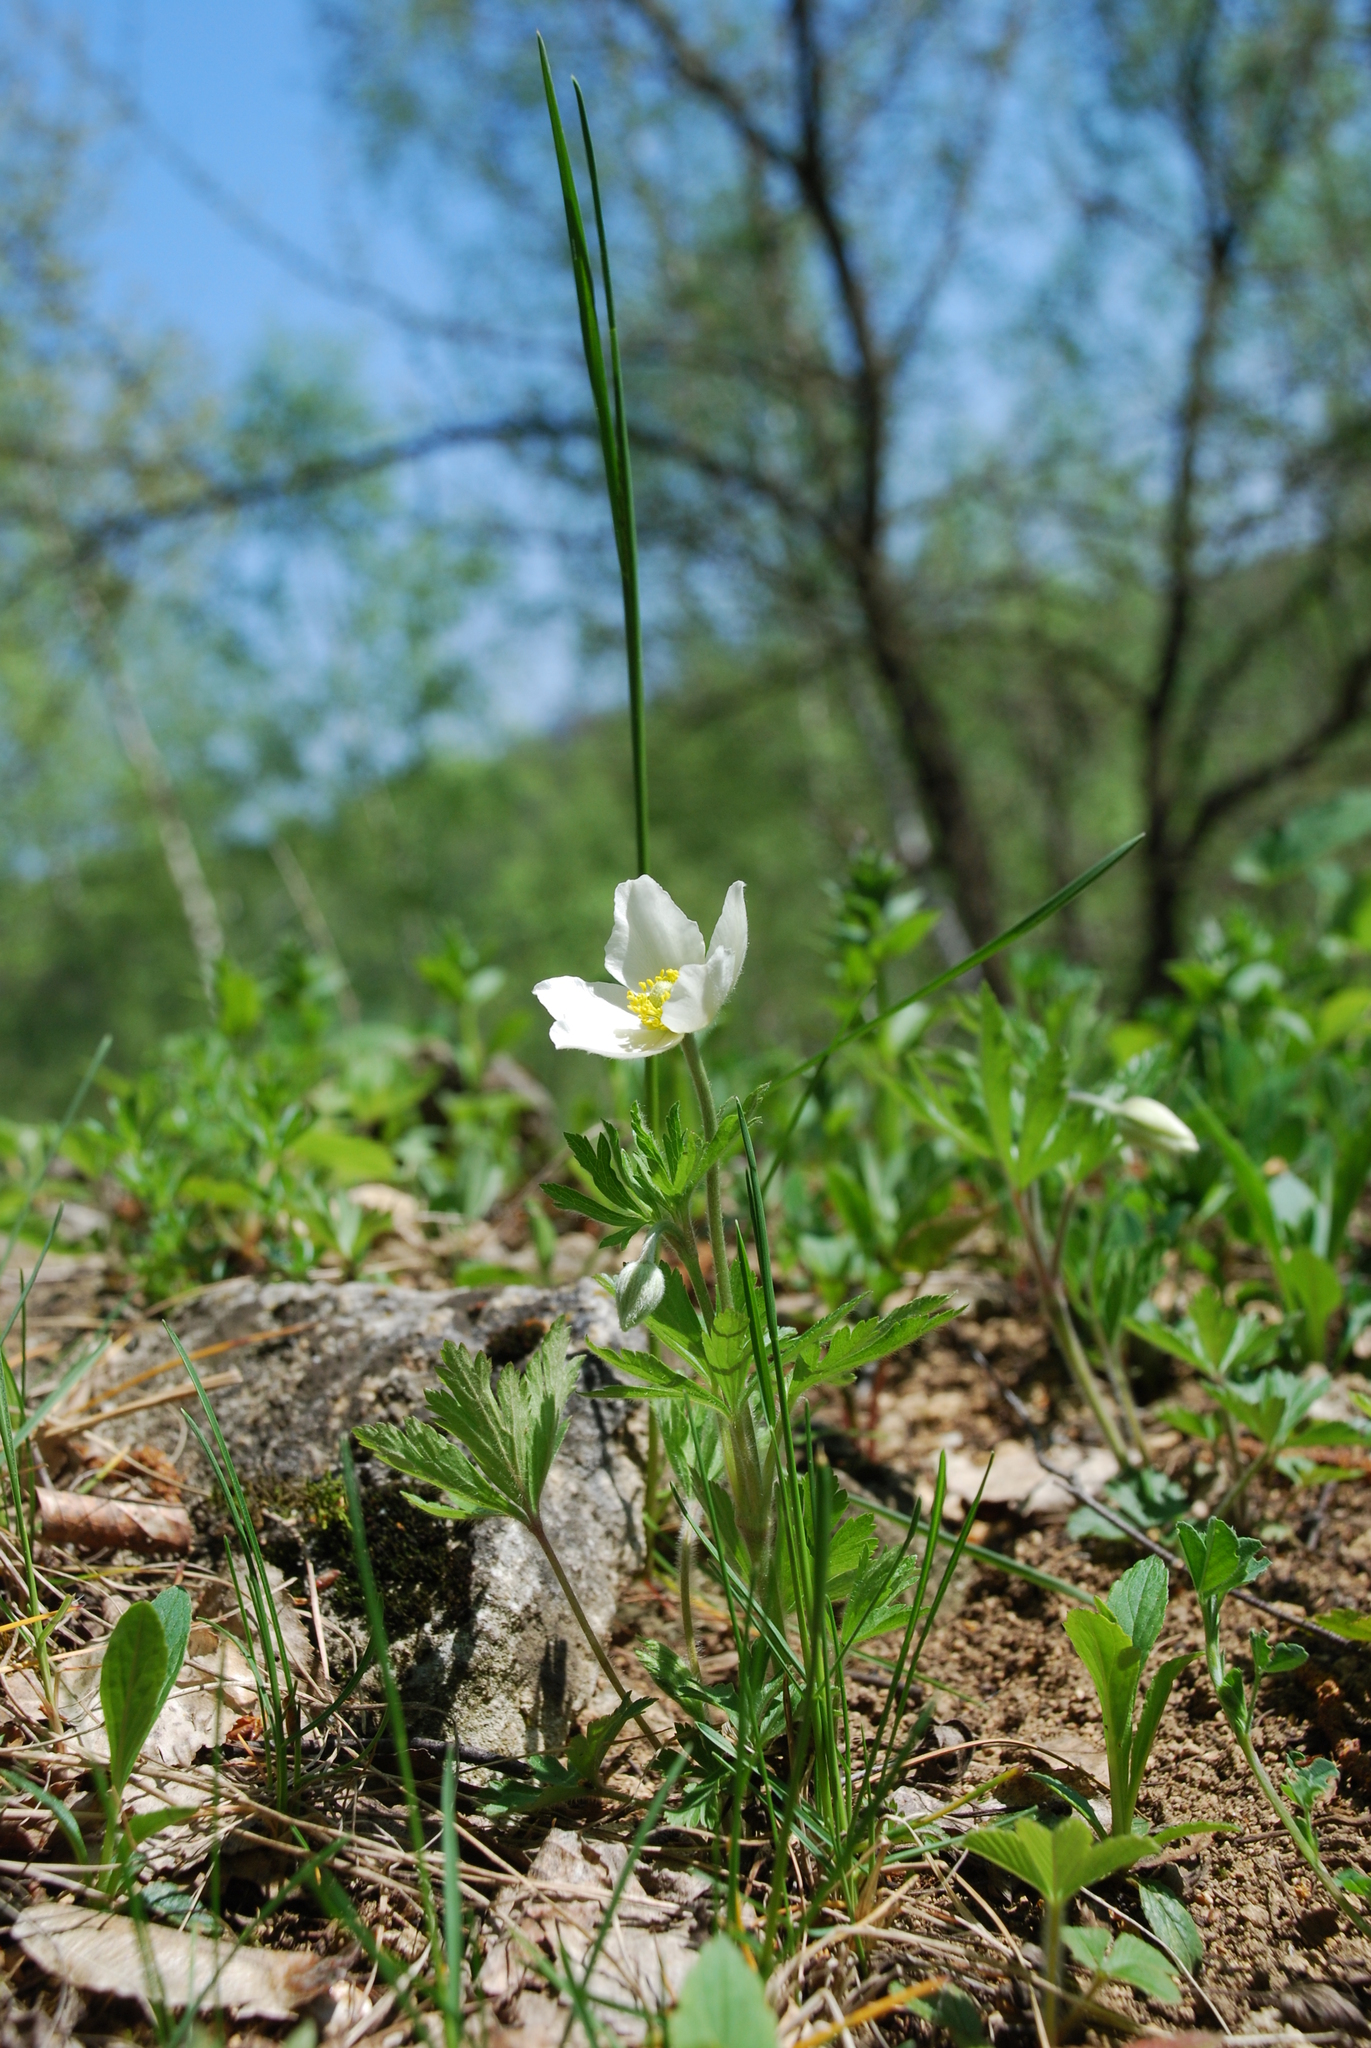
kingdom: Plantae
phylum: Tracheophyta
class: Magnoliopsida
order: Ranunculales
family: Ranunculaceae
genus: Anemone
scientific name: Anemone sylvestris
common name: Snowdrop anemone
